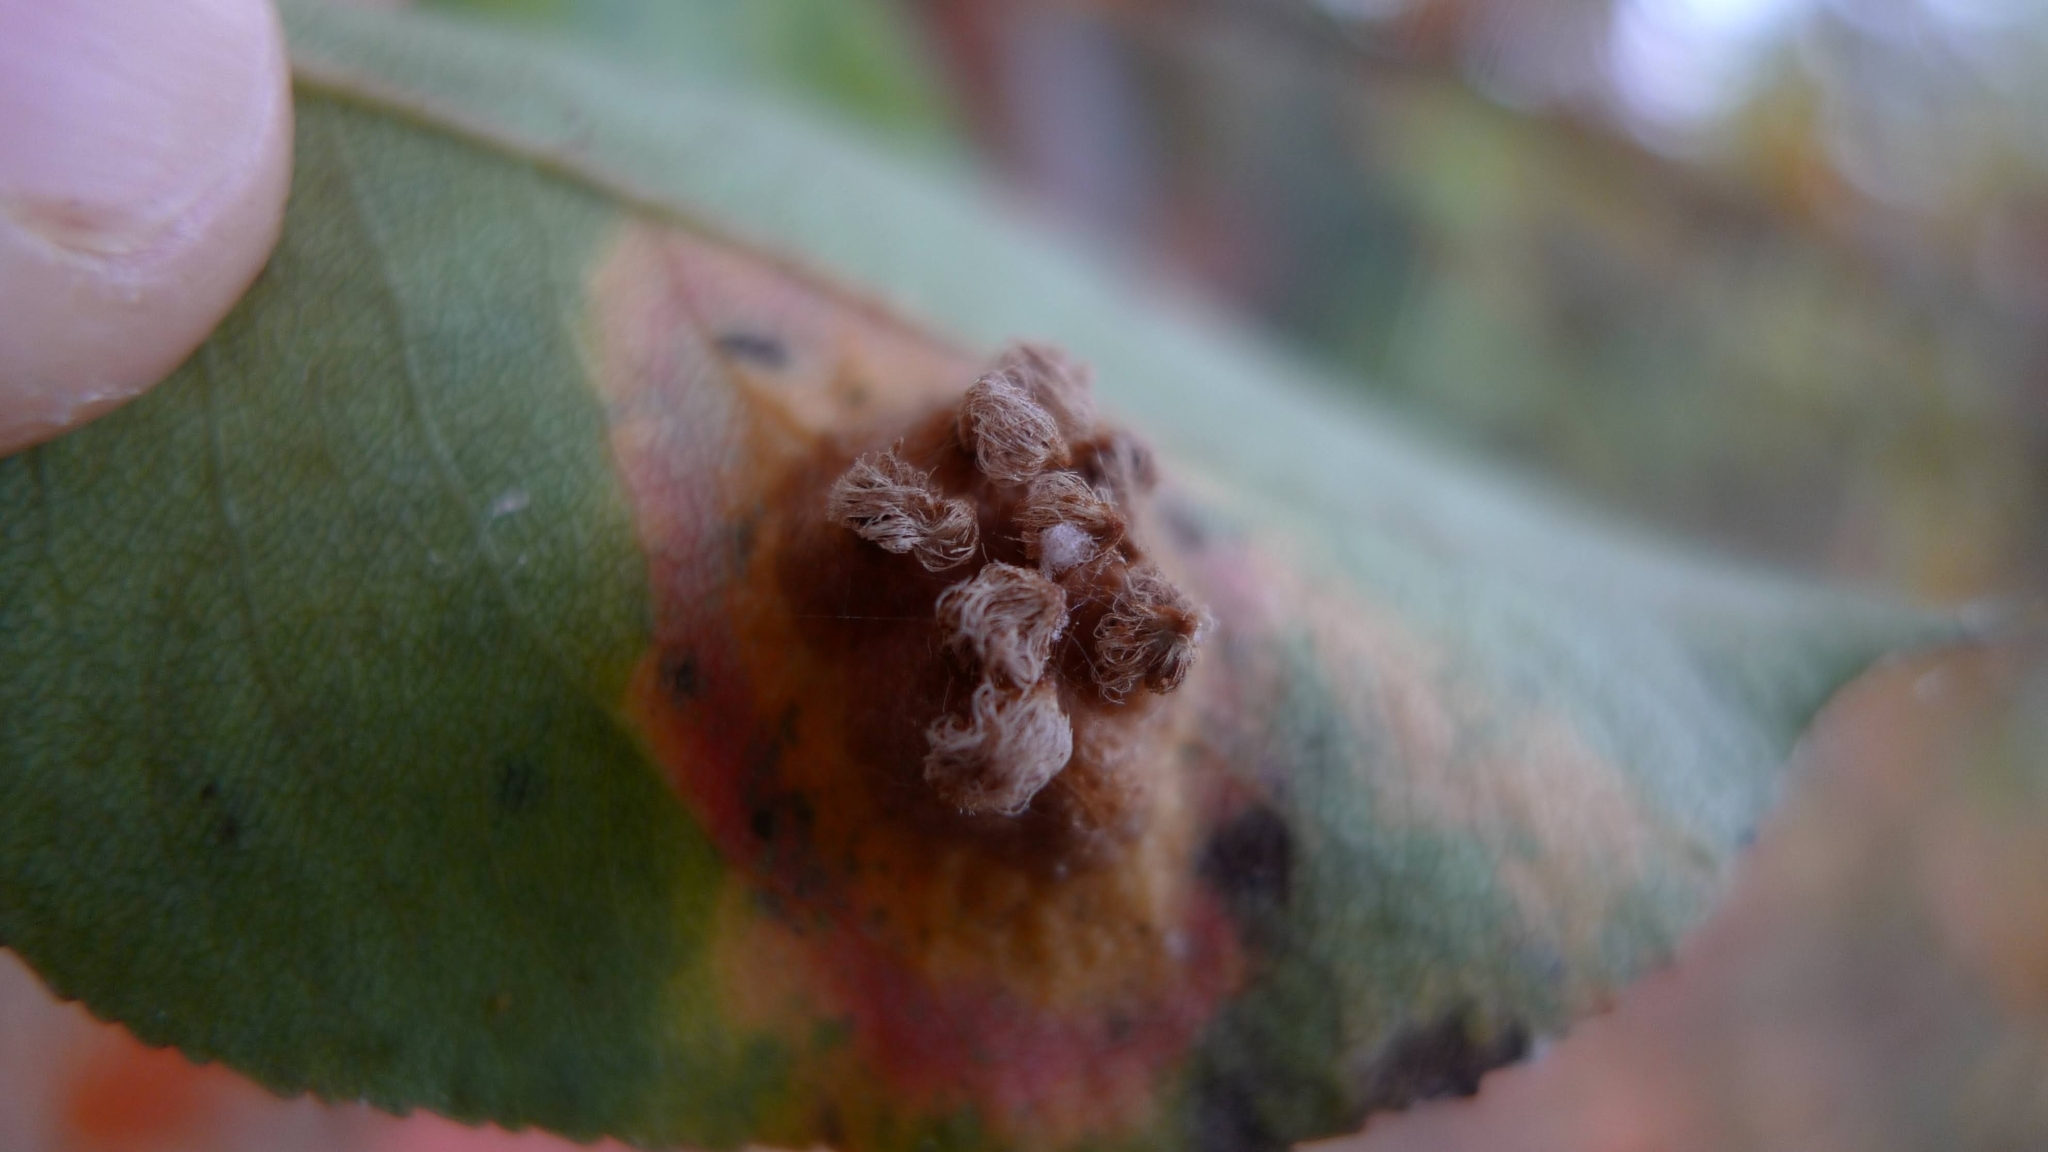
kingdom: Fungi
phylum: Basidiomycota
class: Pucciniomycetes
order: Pucciniales
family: Gymnosporangiaceae
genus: Gymnosporangium
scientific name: Gymnosporangium sabinae
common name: Pear trellis rust fungus
